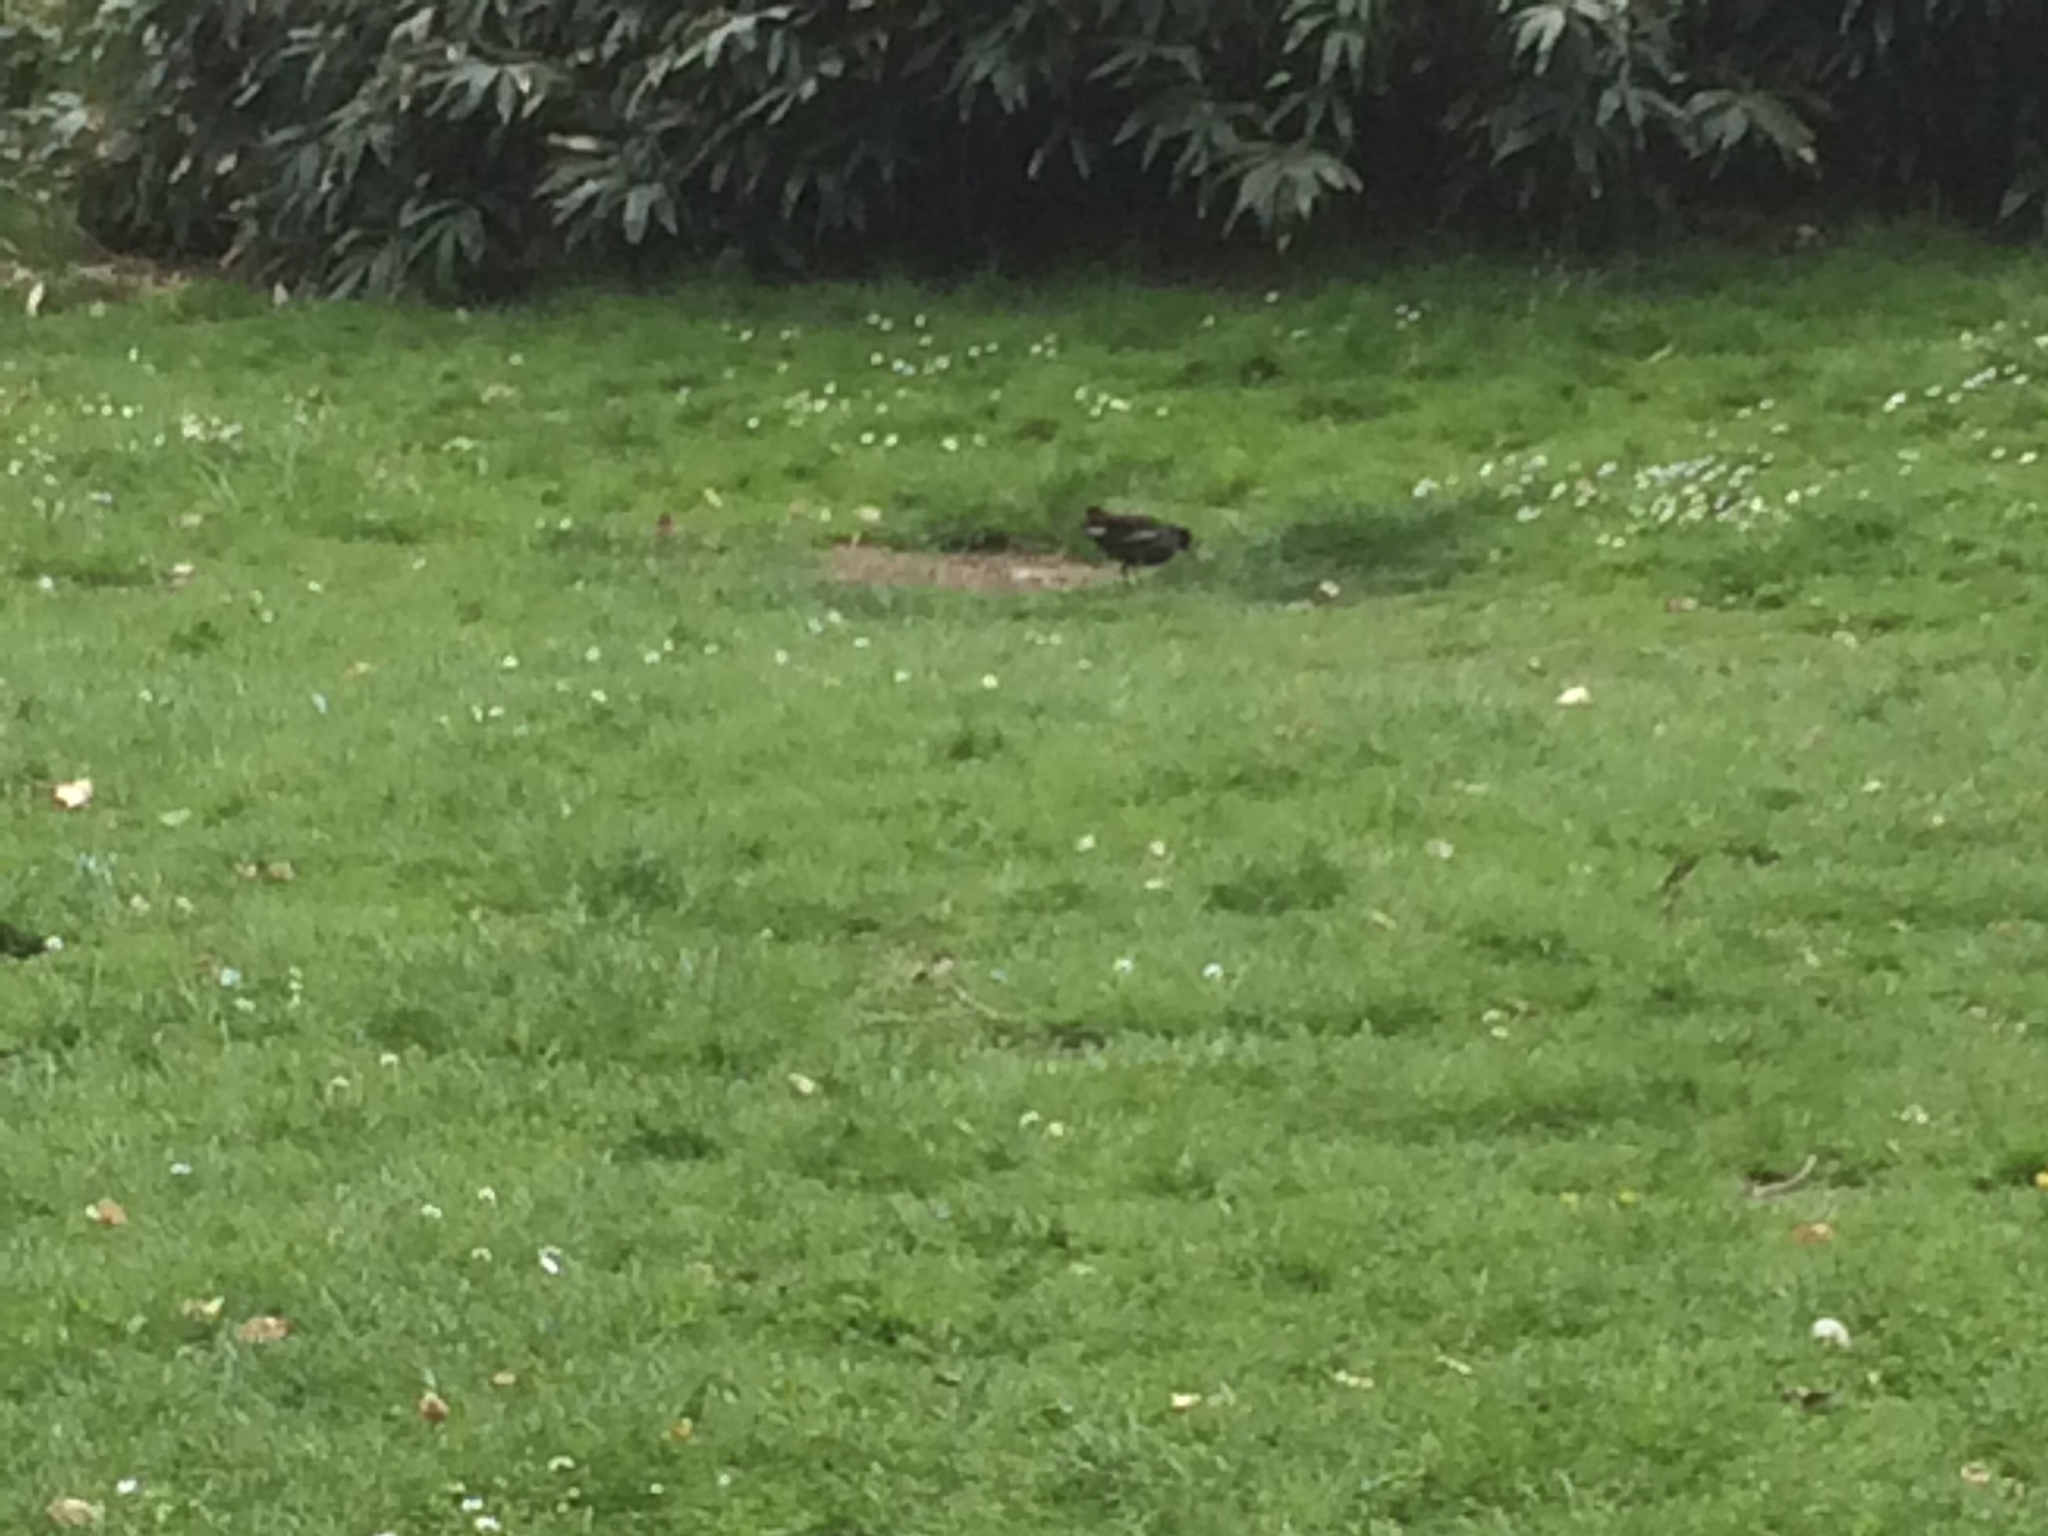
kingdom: Animalia
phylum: Chordata
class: Aves
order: Gruiformes
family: Rallidae
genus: Gallinula
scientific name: Gallinula chloropus
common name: Common moorhen
